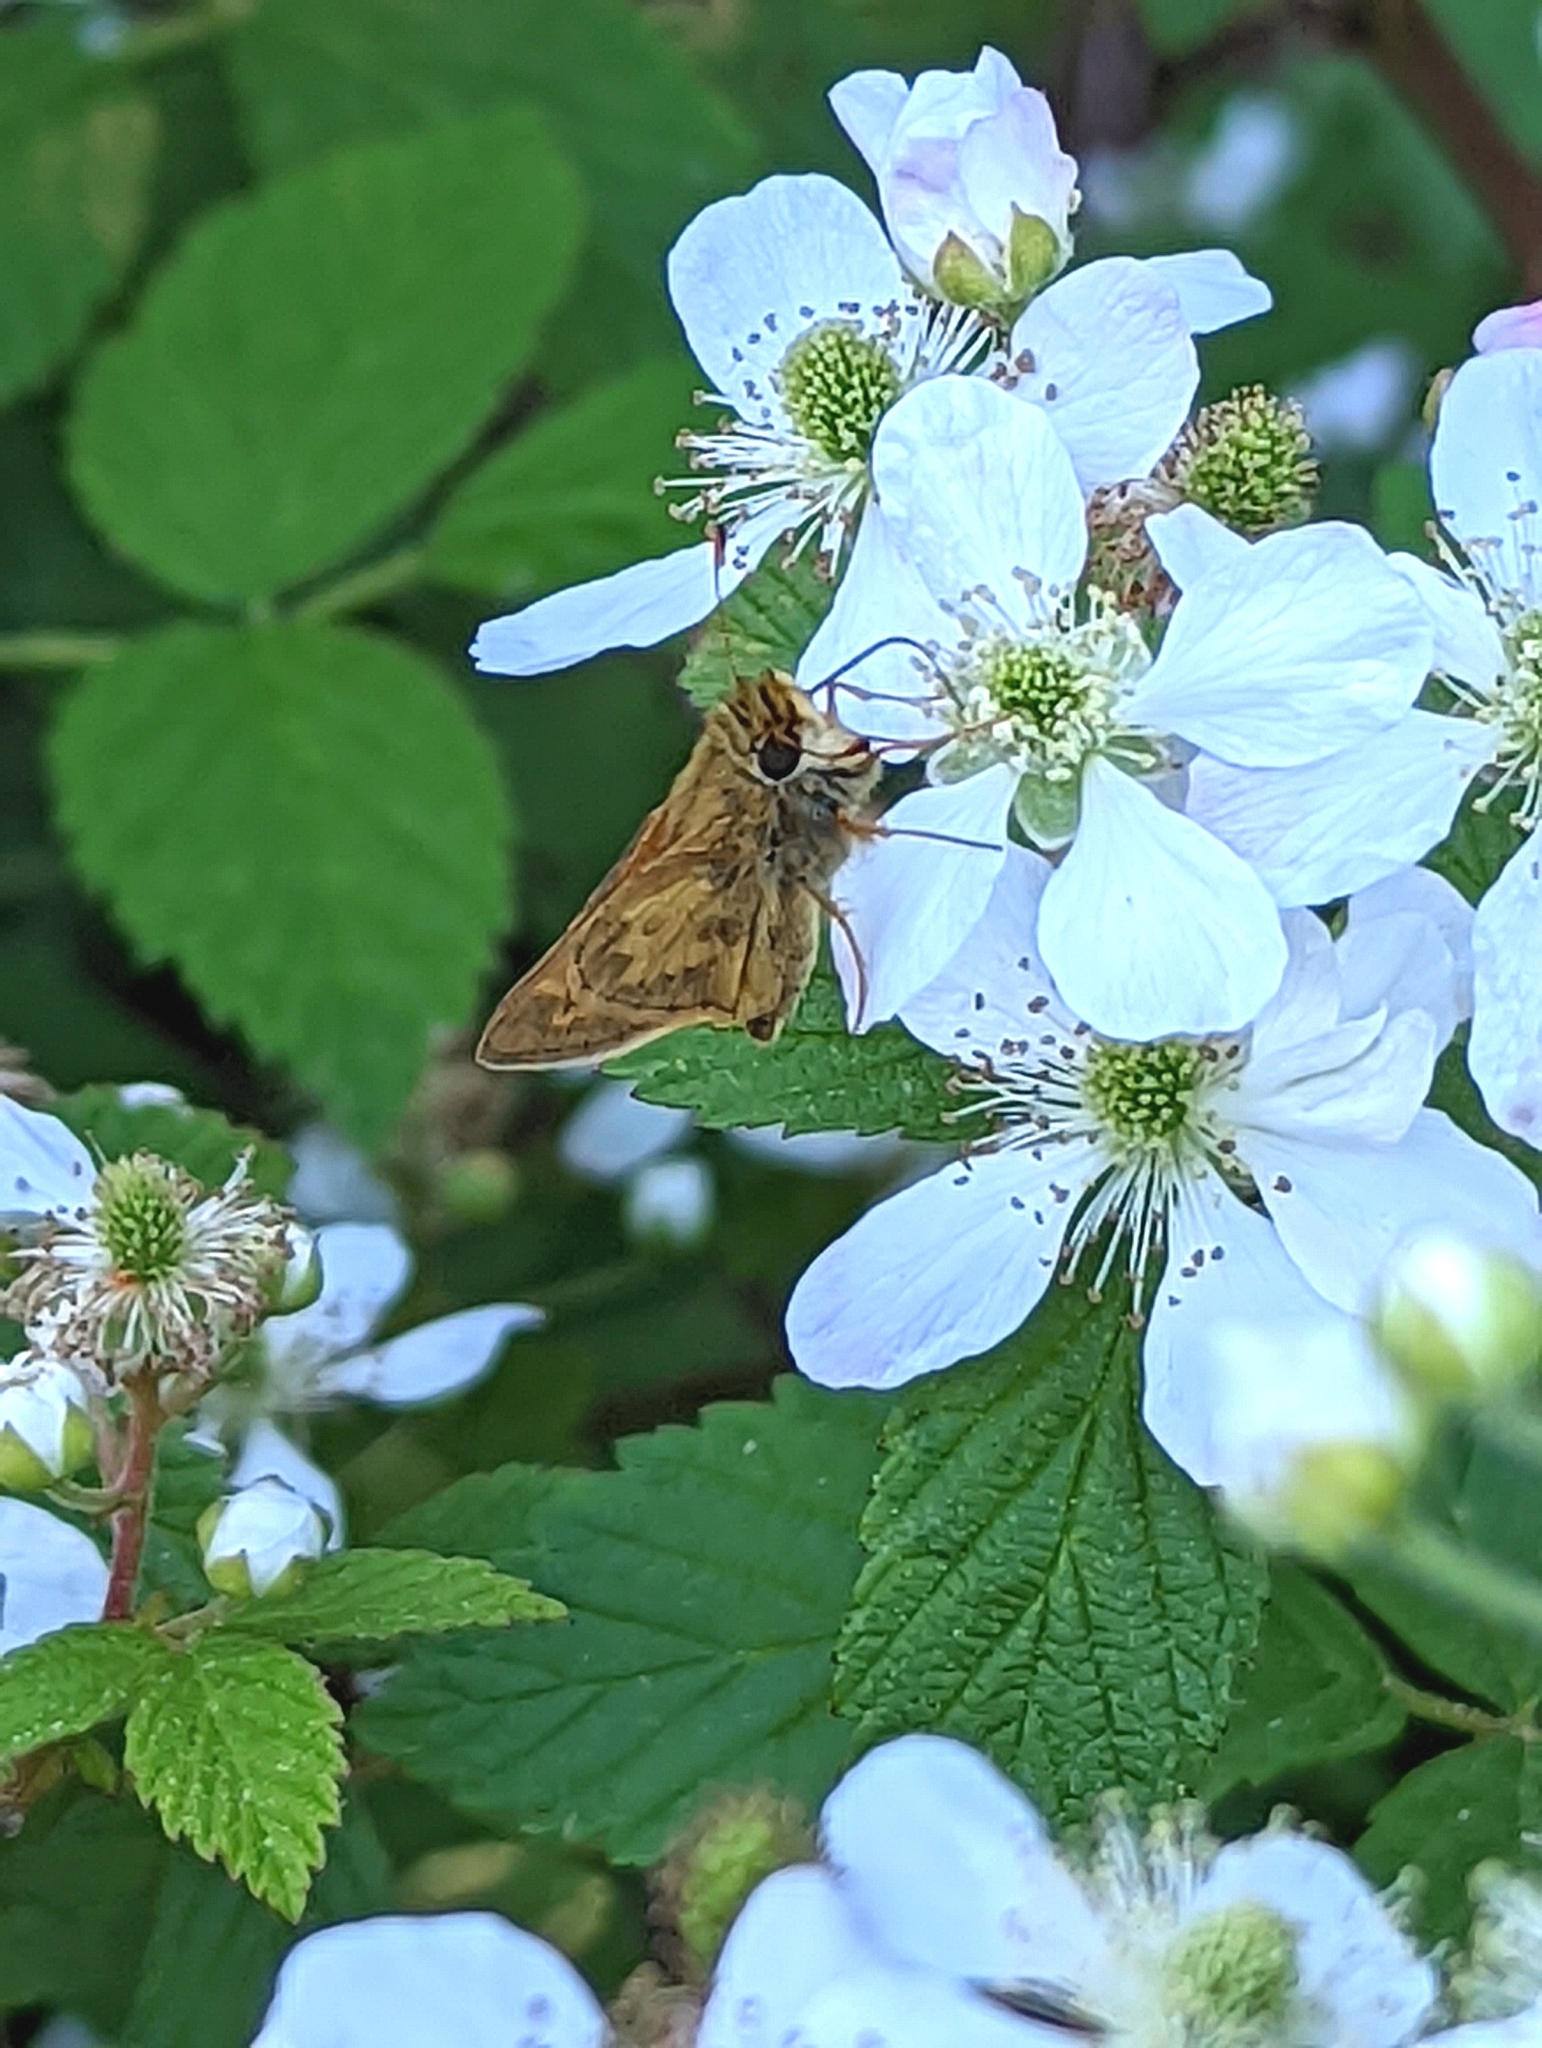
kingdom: Animalia
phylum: Arthropoda
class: Insecta
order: Lepidoptera
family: Hesperiidae
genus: Atalopedes
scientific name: Atalopedes
